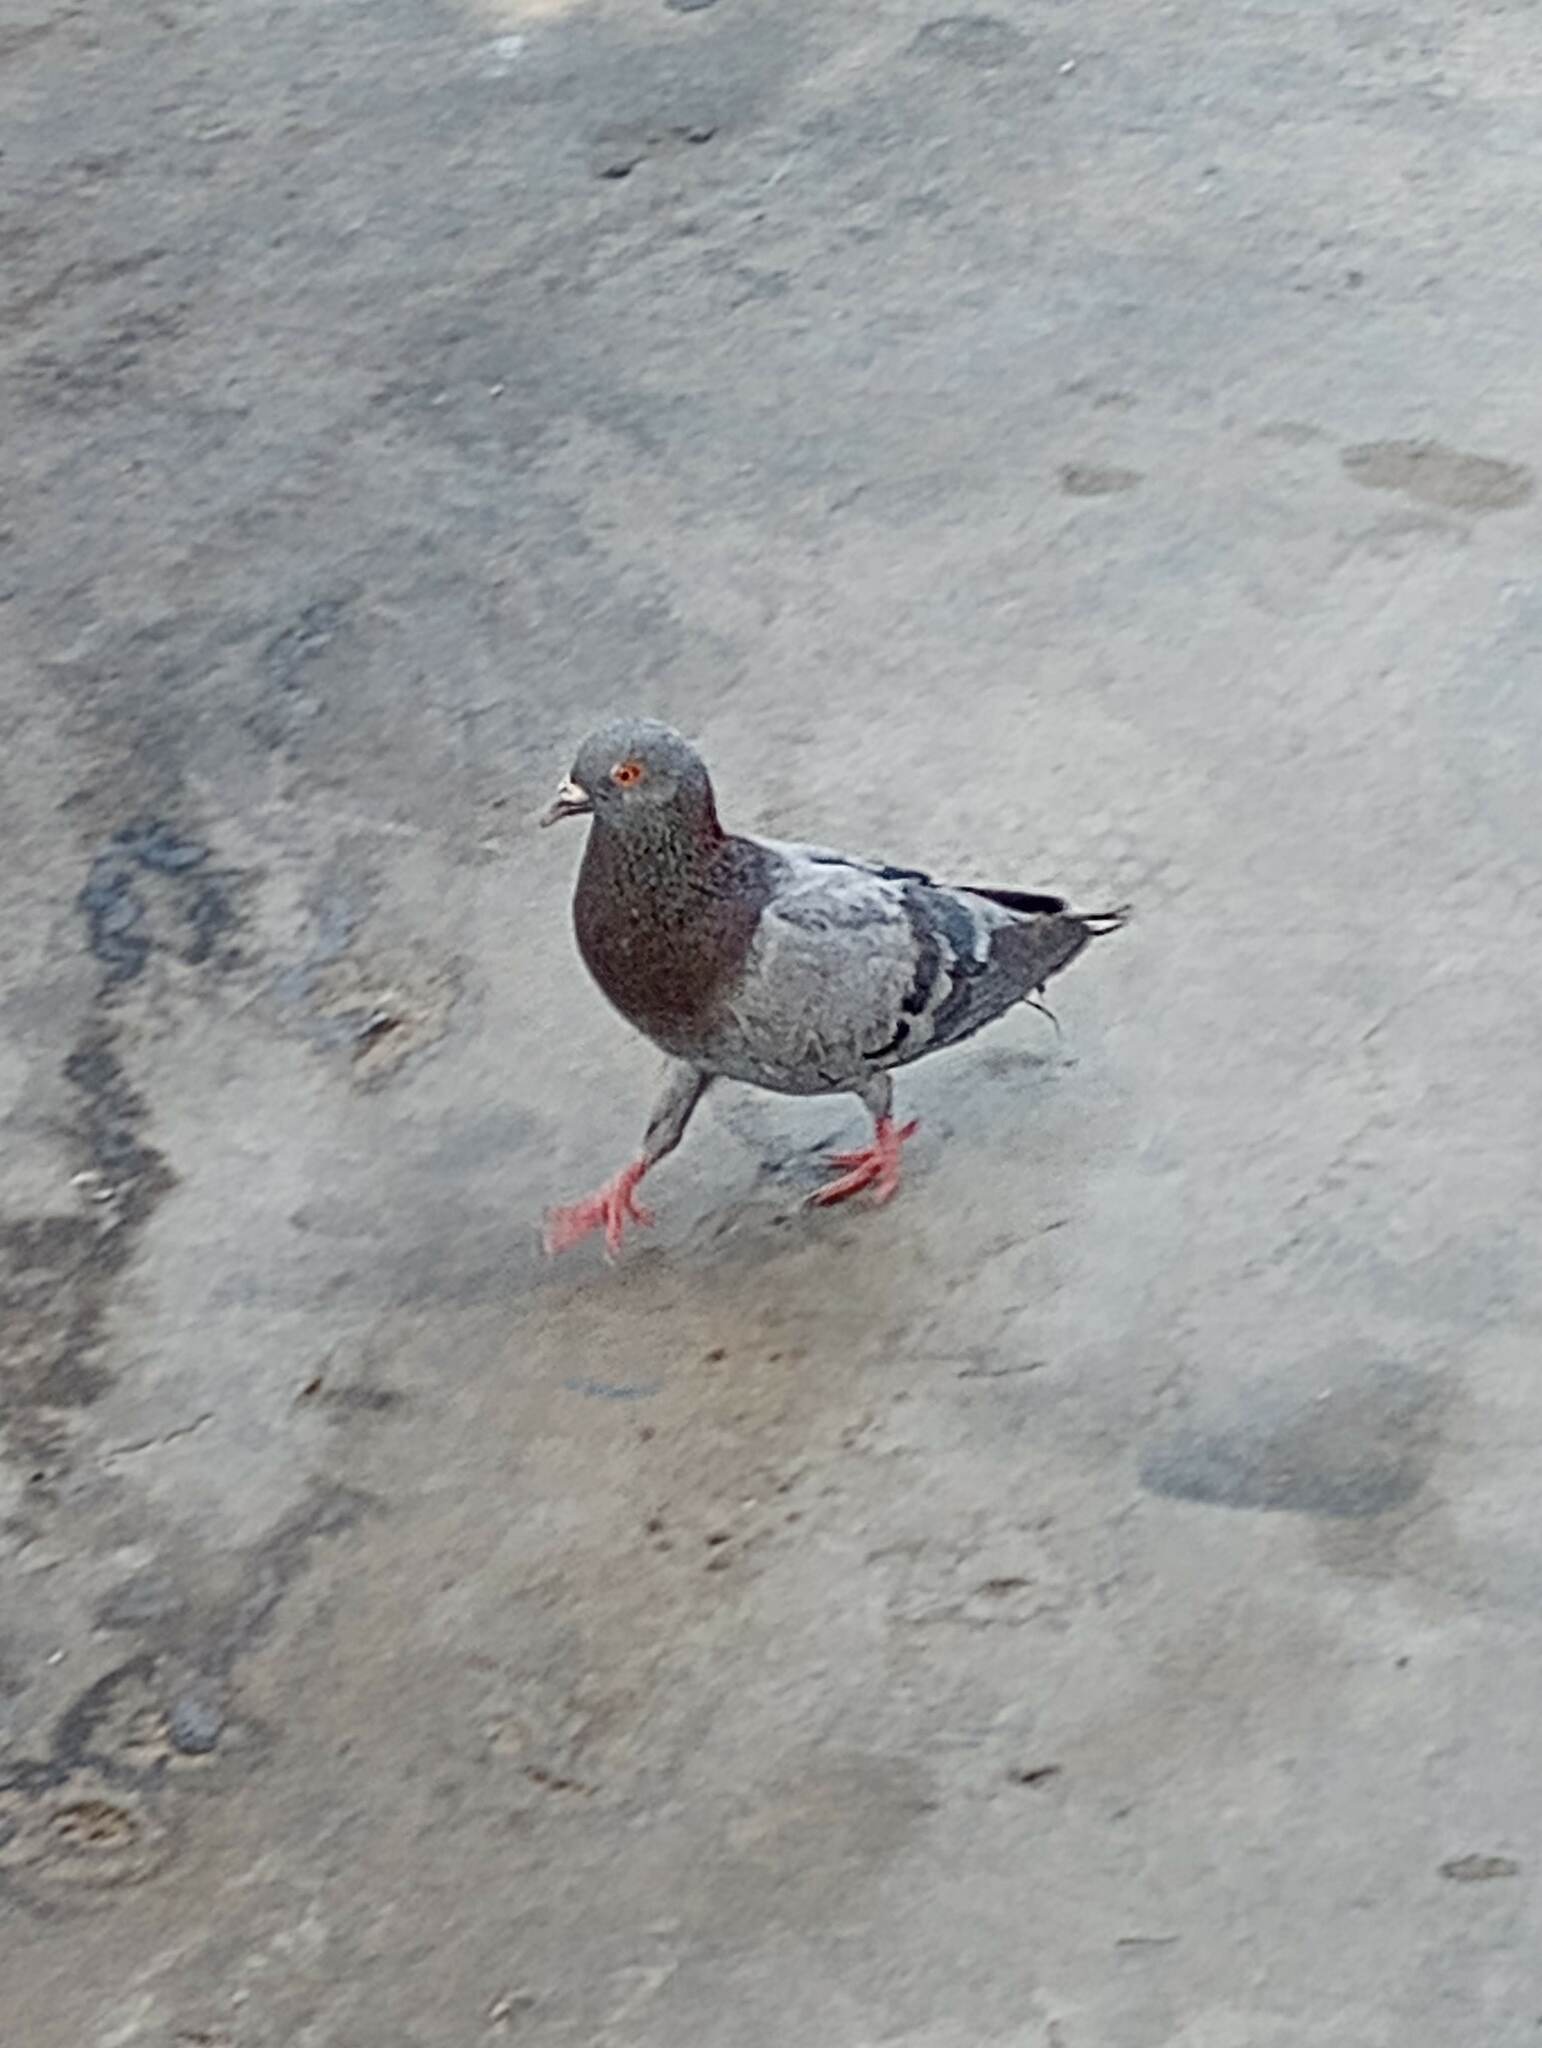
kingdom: Animalia
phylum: Chordata
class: Aves
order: Columbiformes
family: Columbidae
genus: Columba
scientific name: Columba livia
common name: Rock pigeon
